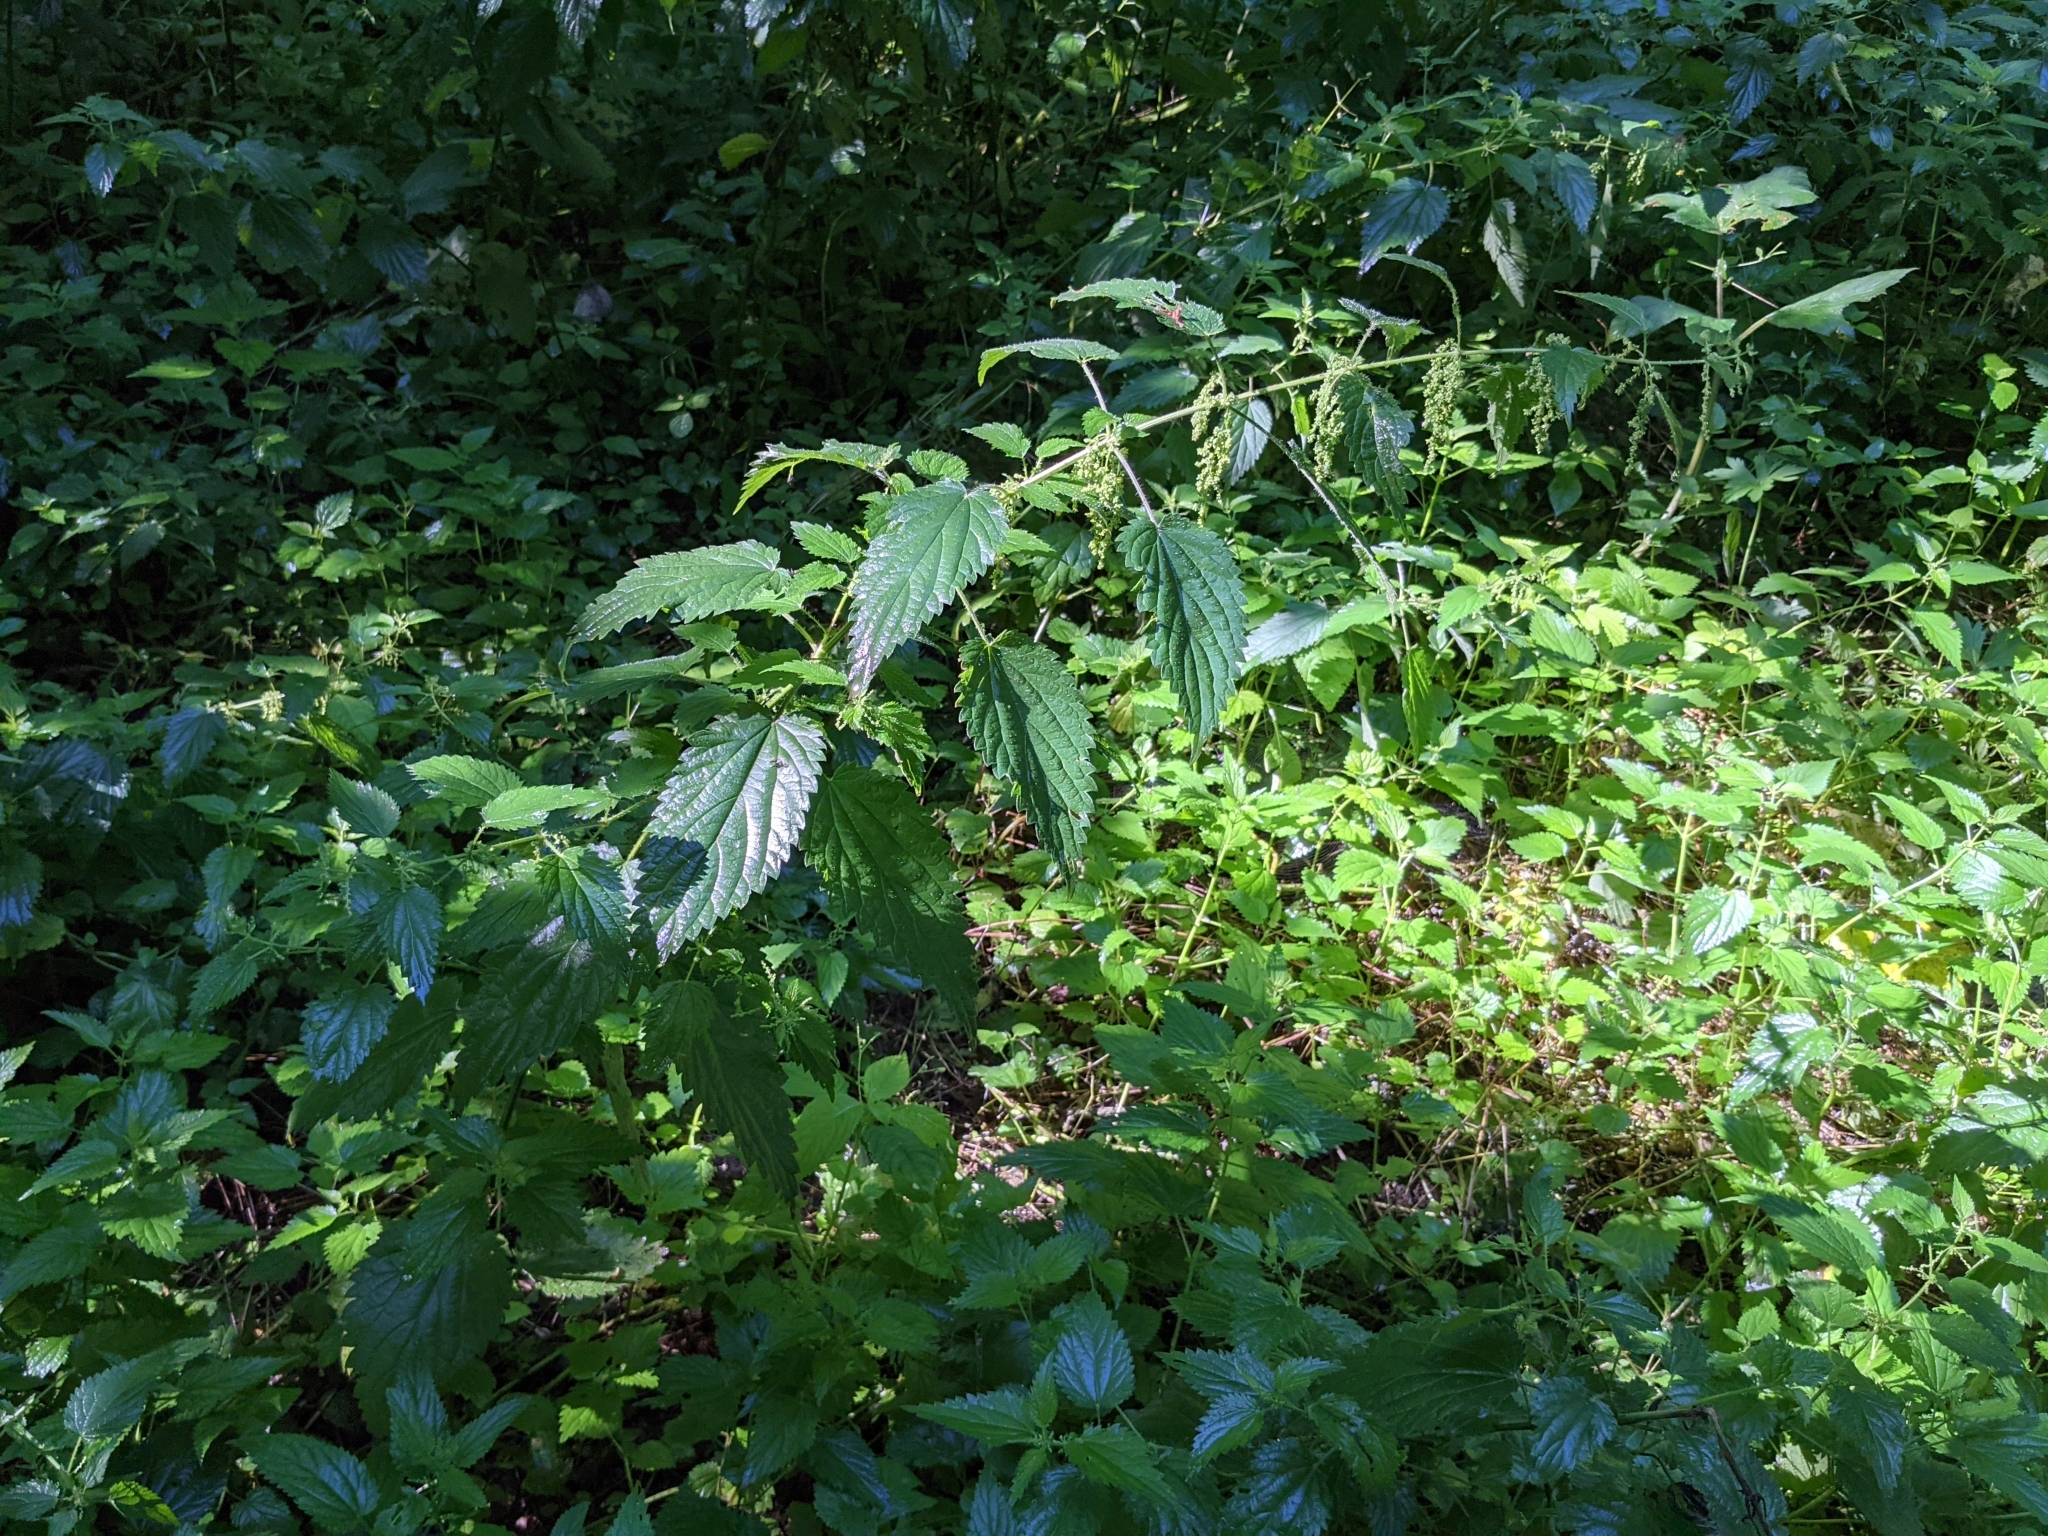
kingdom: Plantae
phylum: Tracheophyta
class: Magnoliopsida
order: Rosales
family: Urticaceae
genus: Urtica
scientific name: Urtica dioica
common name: Common nettle
